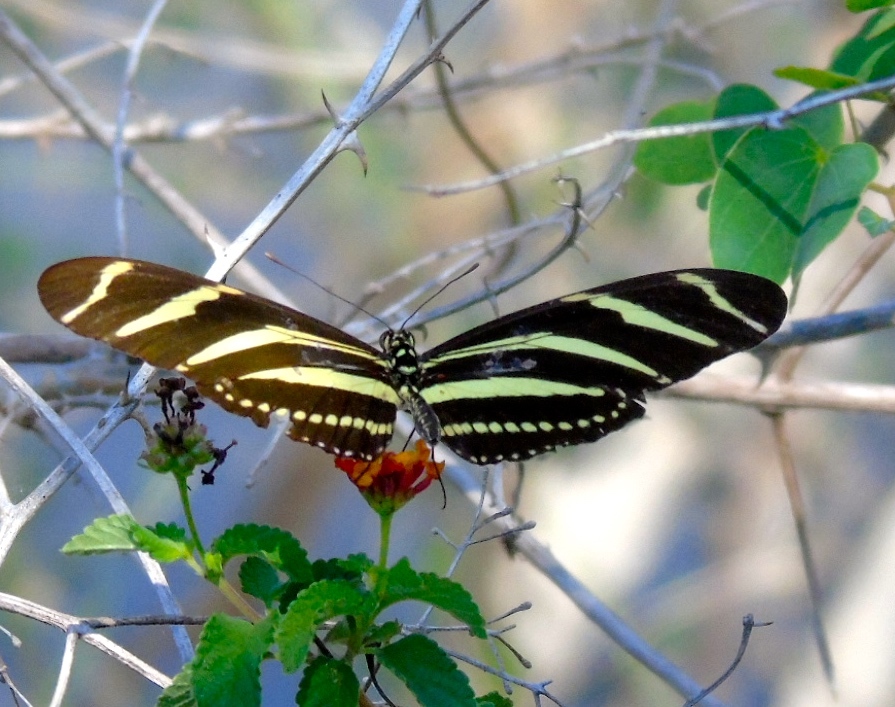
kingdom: Animalia
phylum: Arthropoda
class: Insecta
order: Lepidoptera
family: Nymphalidae
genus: Heliconius
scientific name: Heliconius charithonia
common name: Zebra long wing
